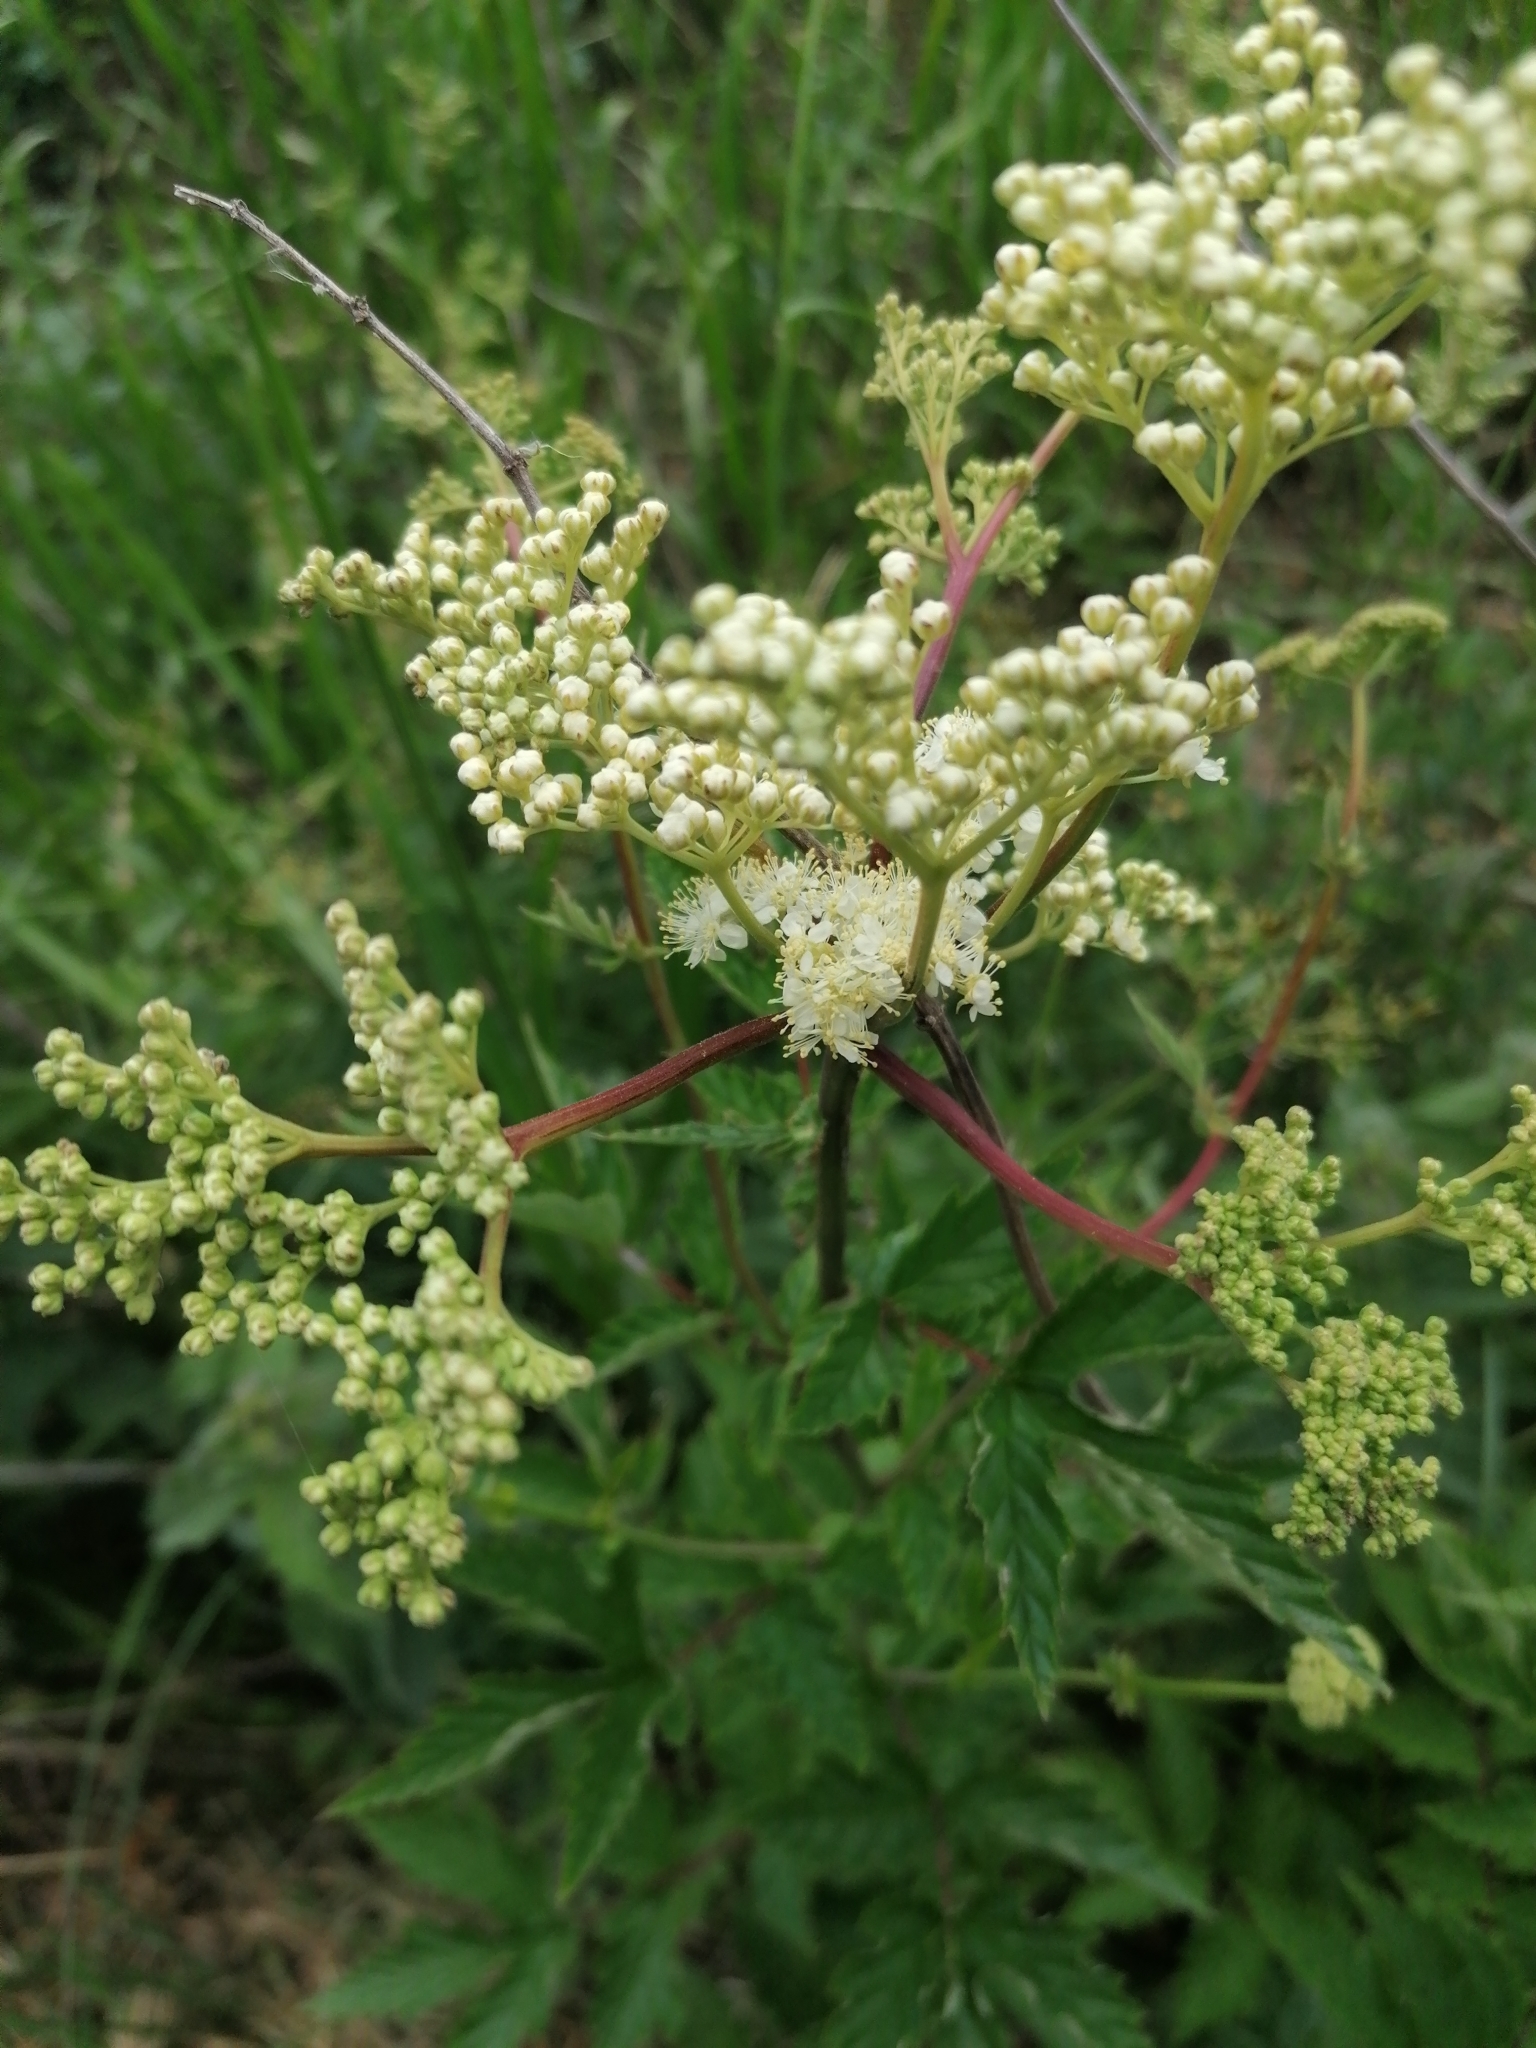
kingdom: Plantae
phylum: Tracheophyta
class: Magnoliopsida
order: Rosales
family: Rosaceae
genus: Filipendula
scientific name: Filipendula ulmaria
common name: Meadowsweet
